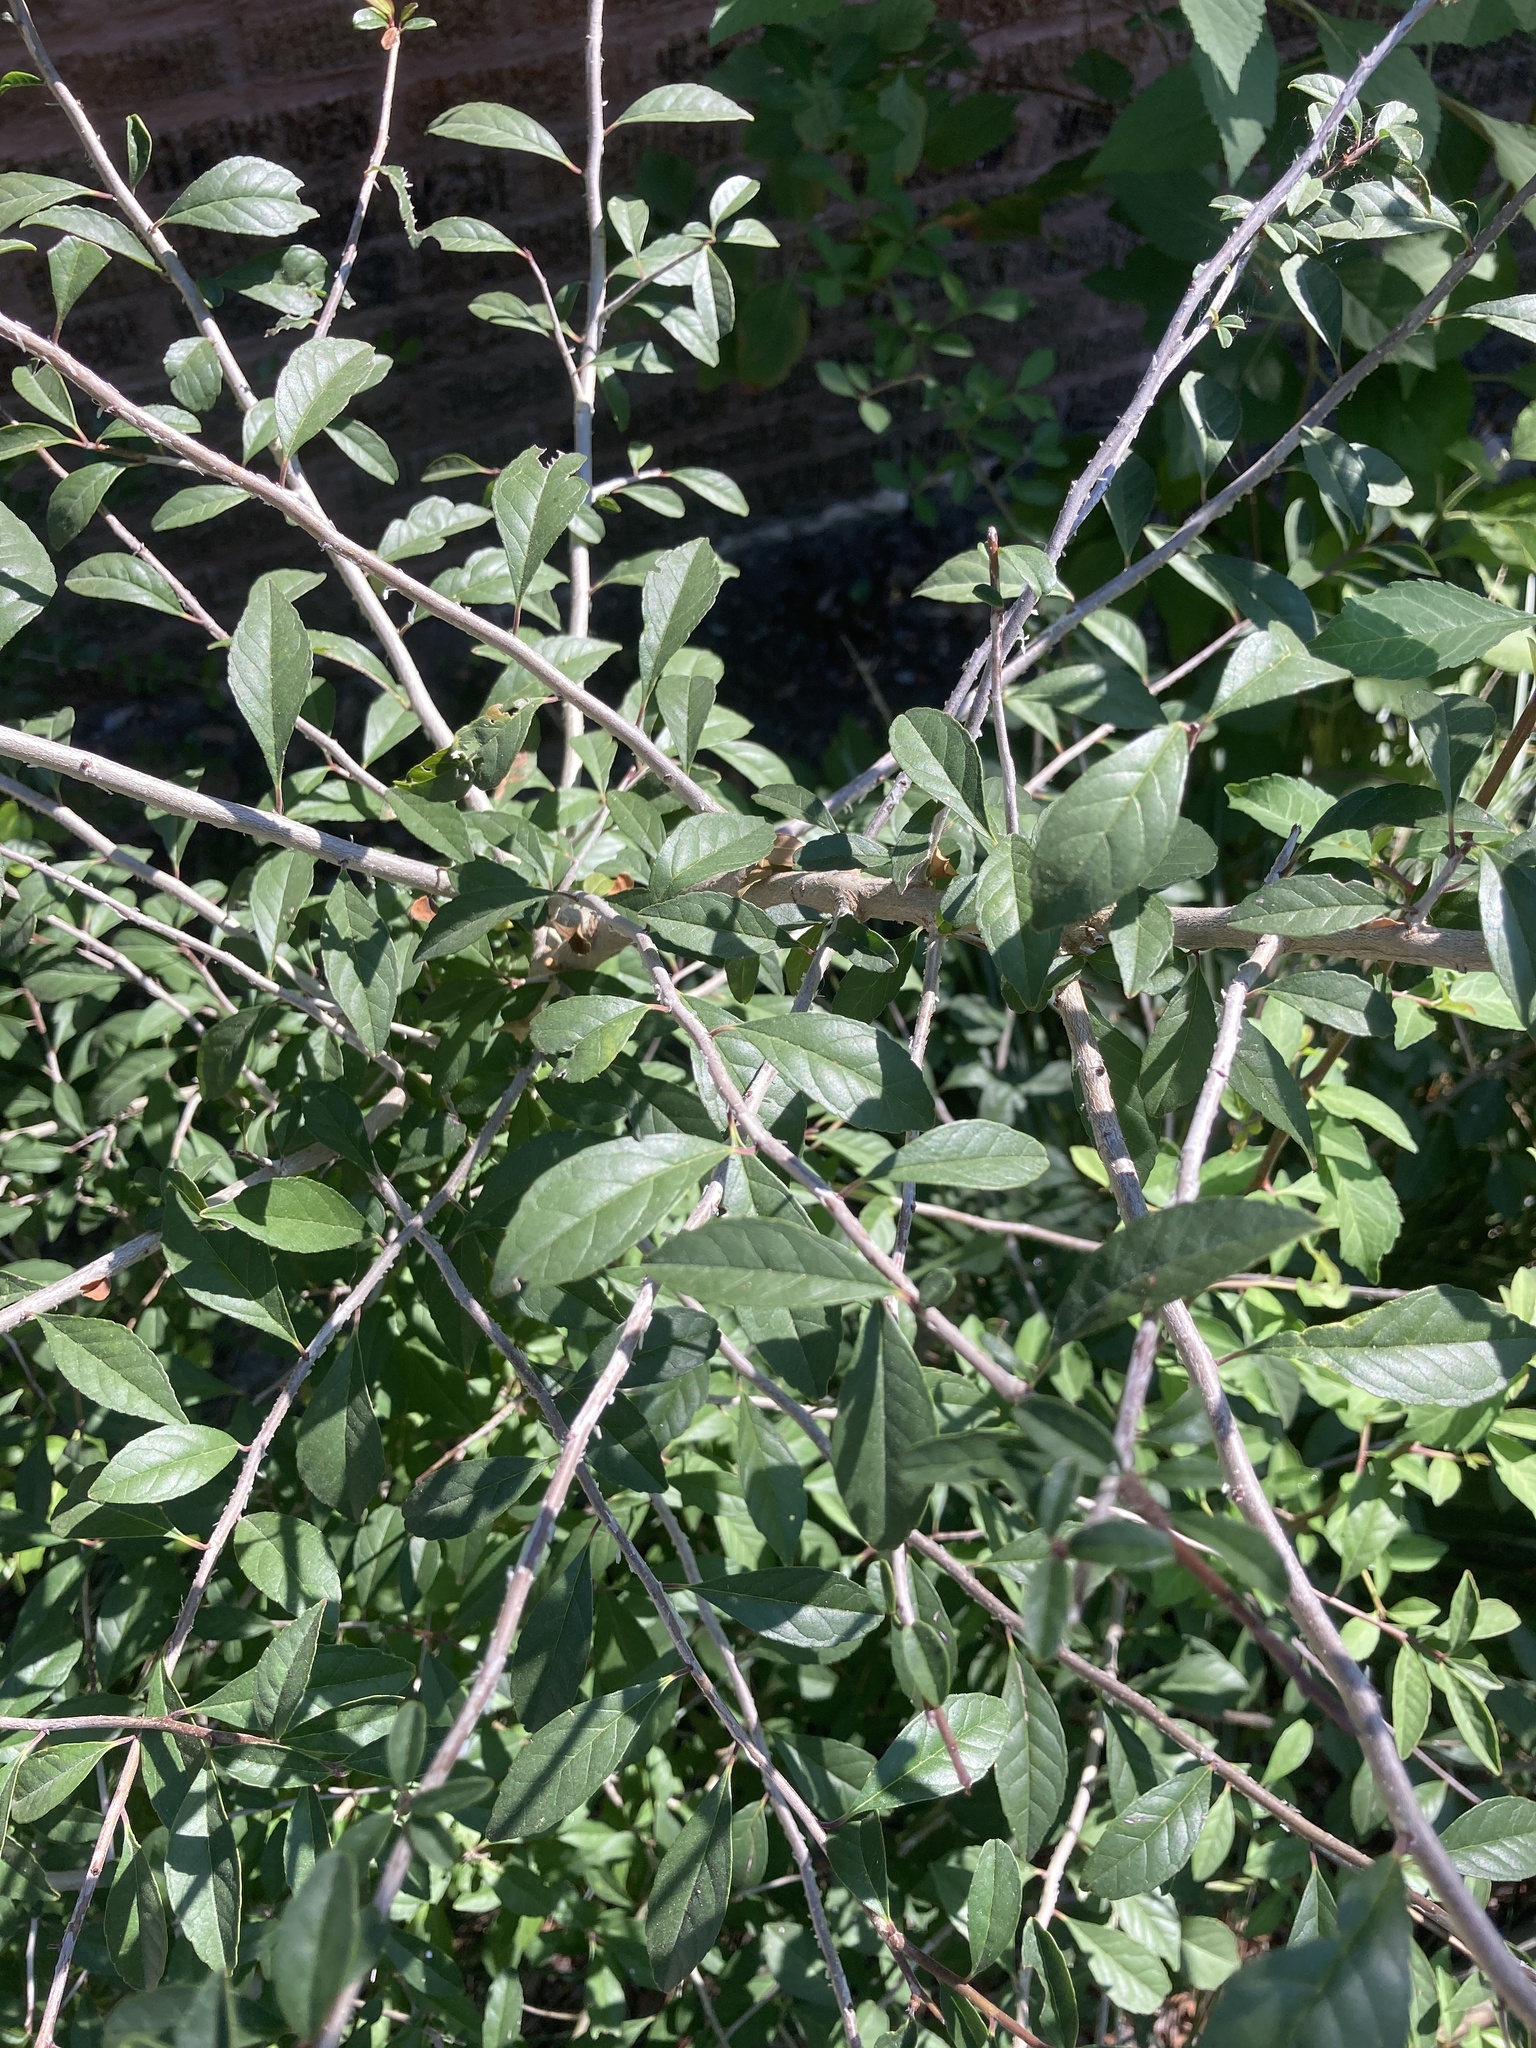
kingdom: Plantae
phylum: Tracheophyta
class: Magnoliopsida
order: Aquifoliales
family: Aquifoliaceae
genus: Ilex
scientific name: Ilex decidua
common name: Possum-haw
